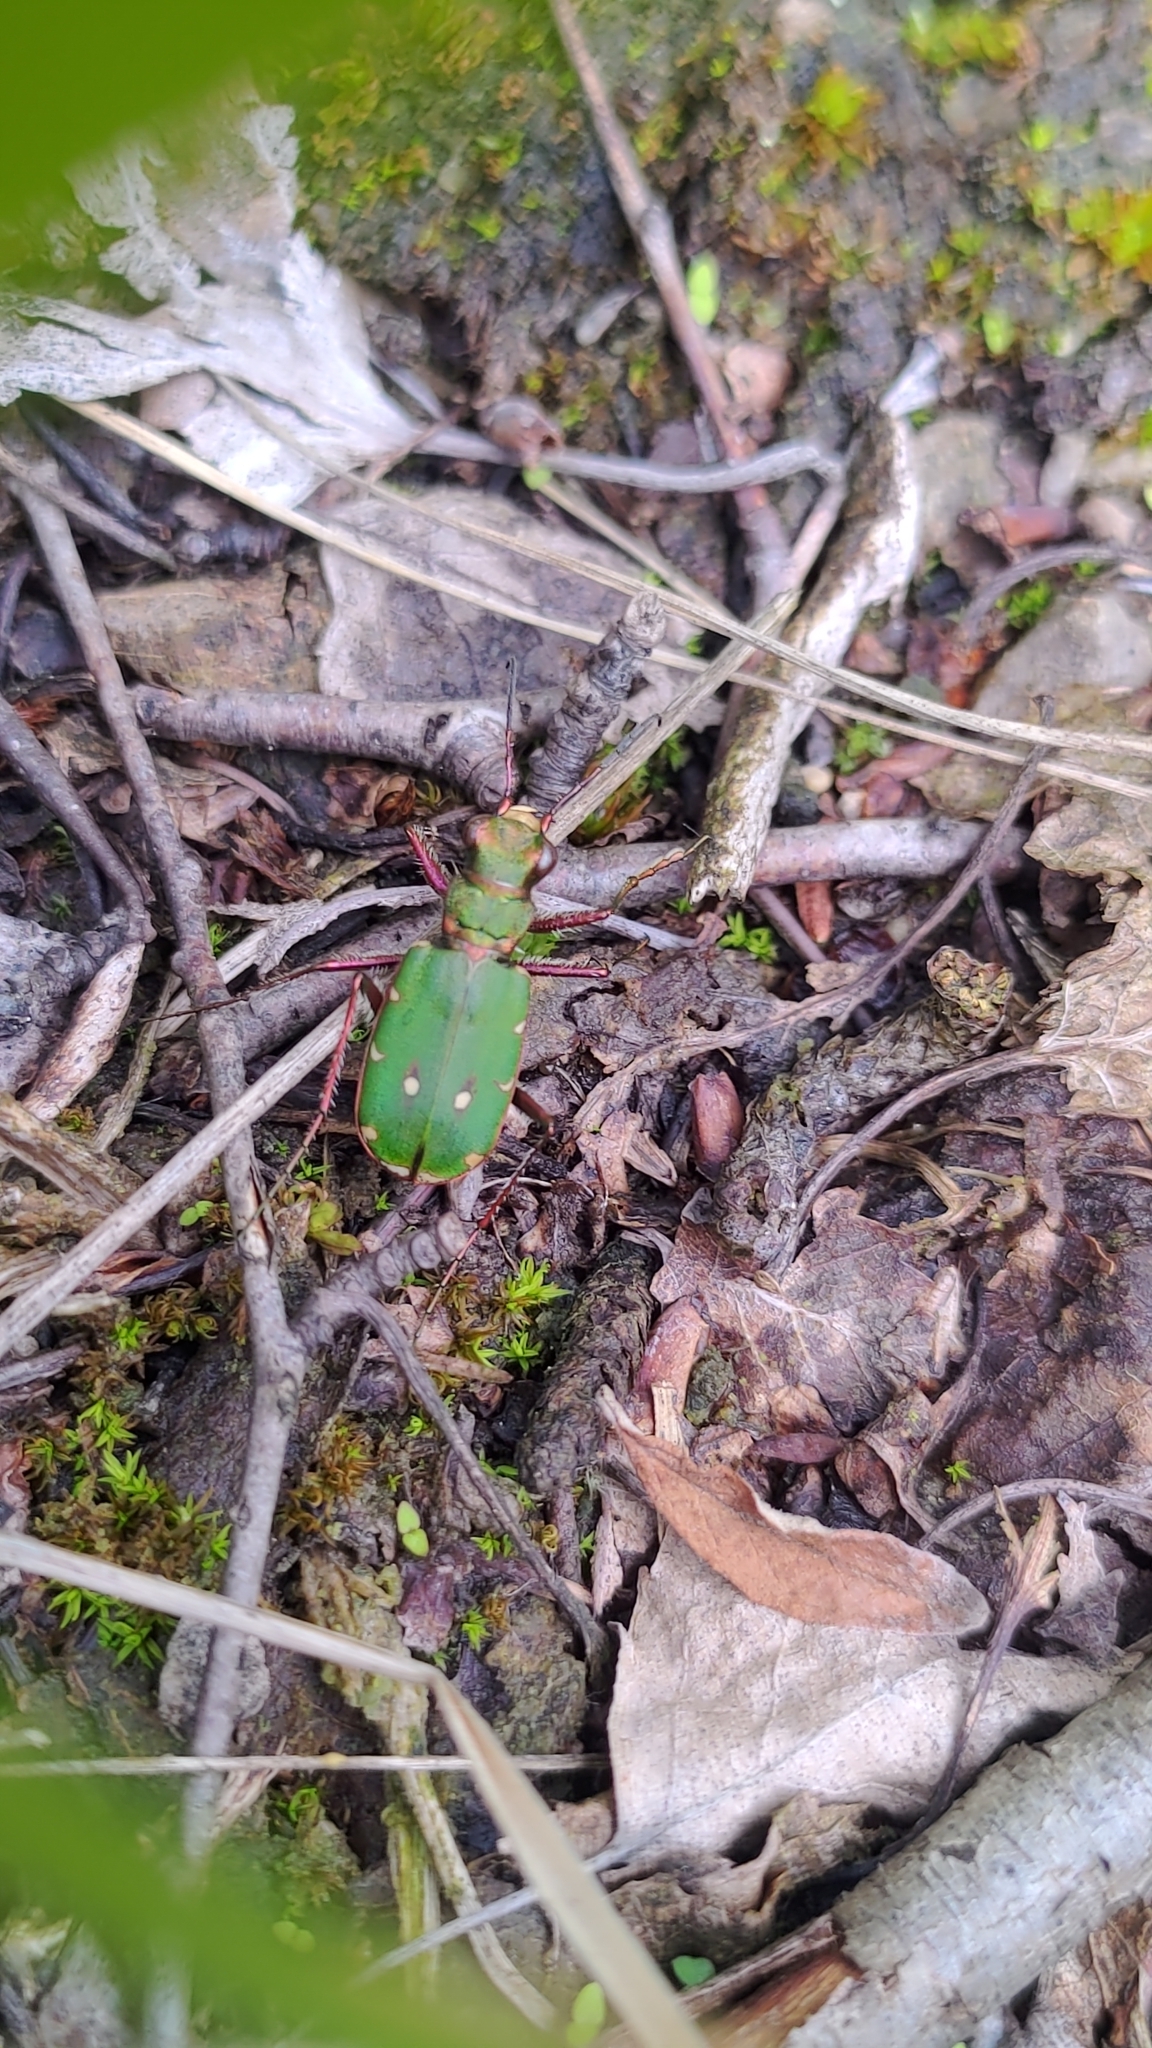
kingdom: Animalia
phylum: Arthropoda
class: Insecta
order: Coleoptera
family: Carabidae
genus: Cicindela
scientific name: Cicindela campestris
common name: Common tiger beetle
